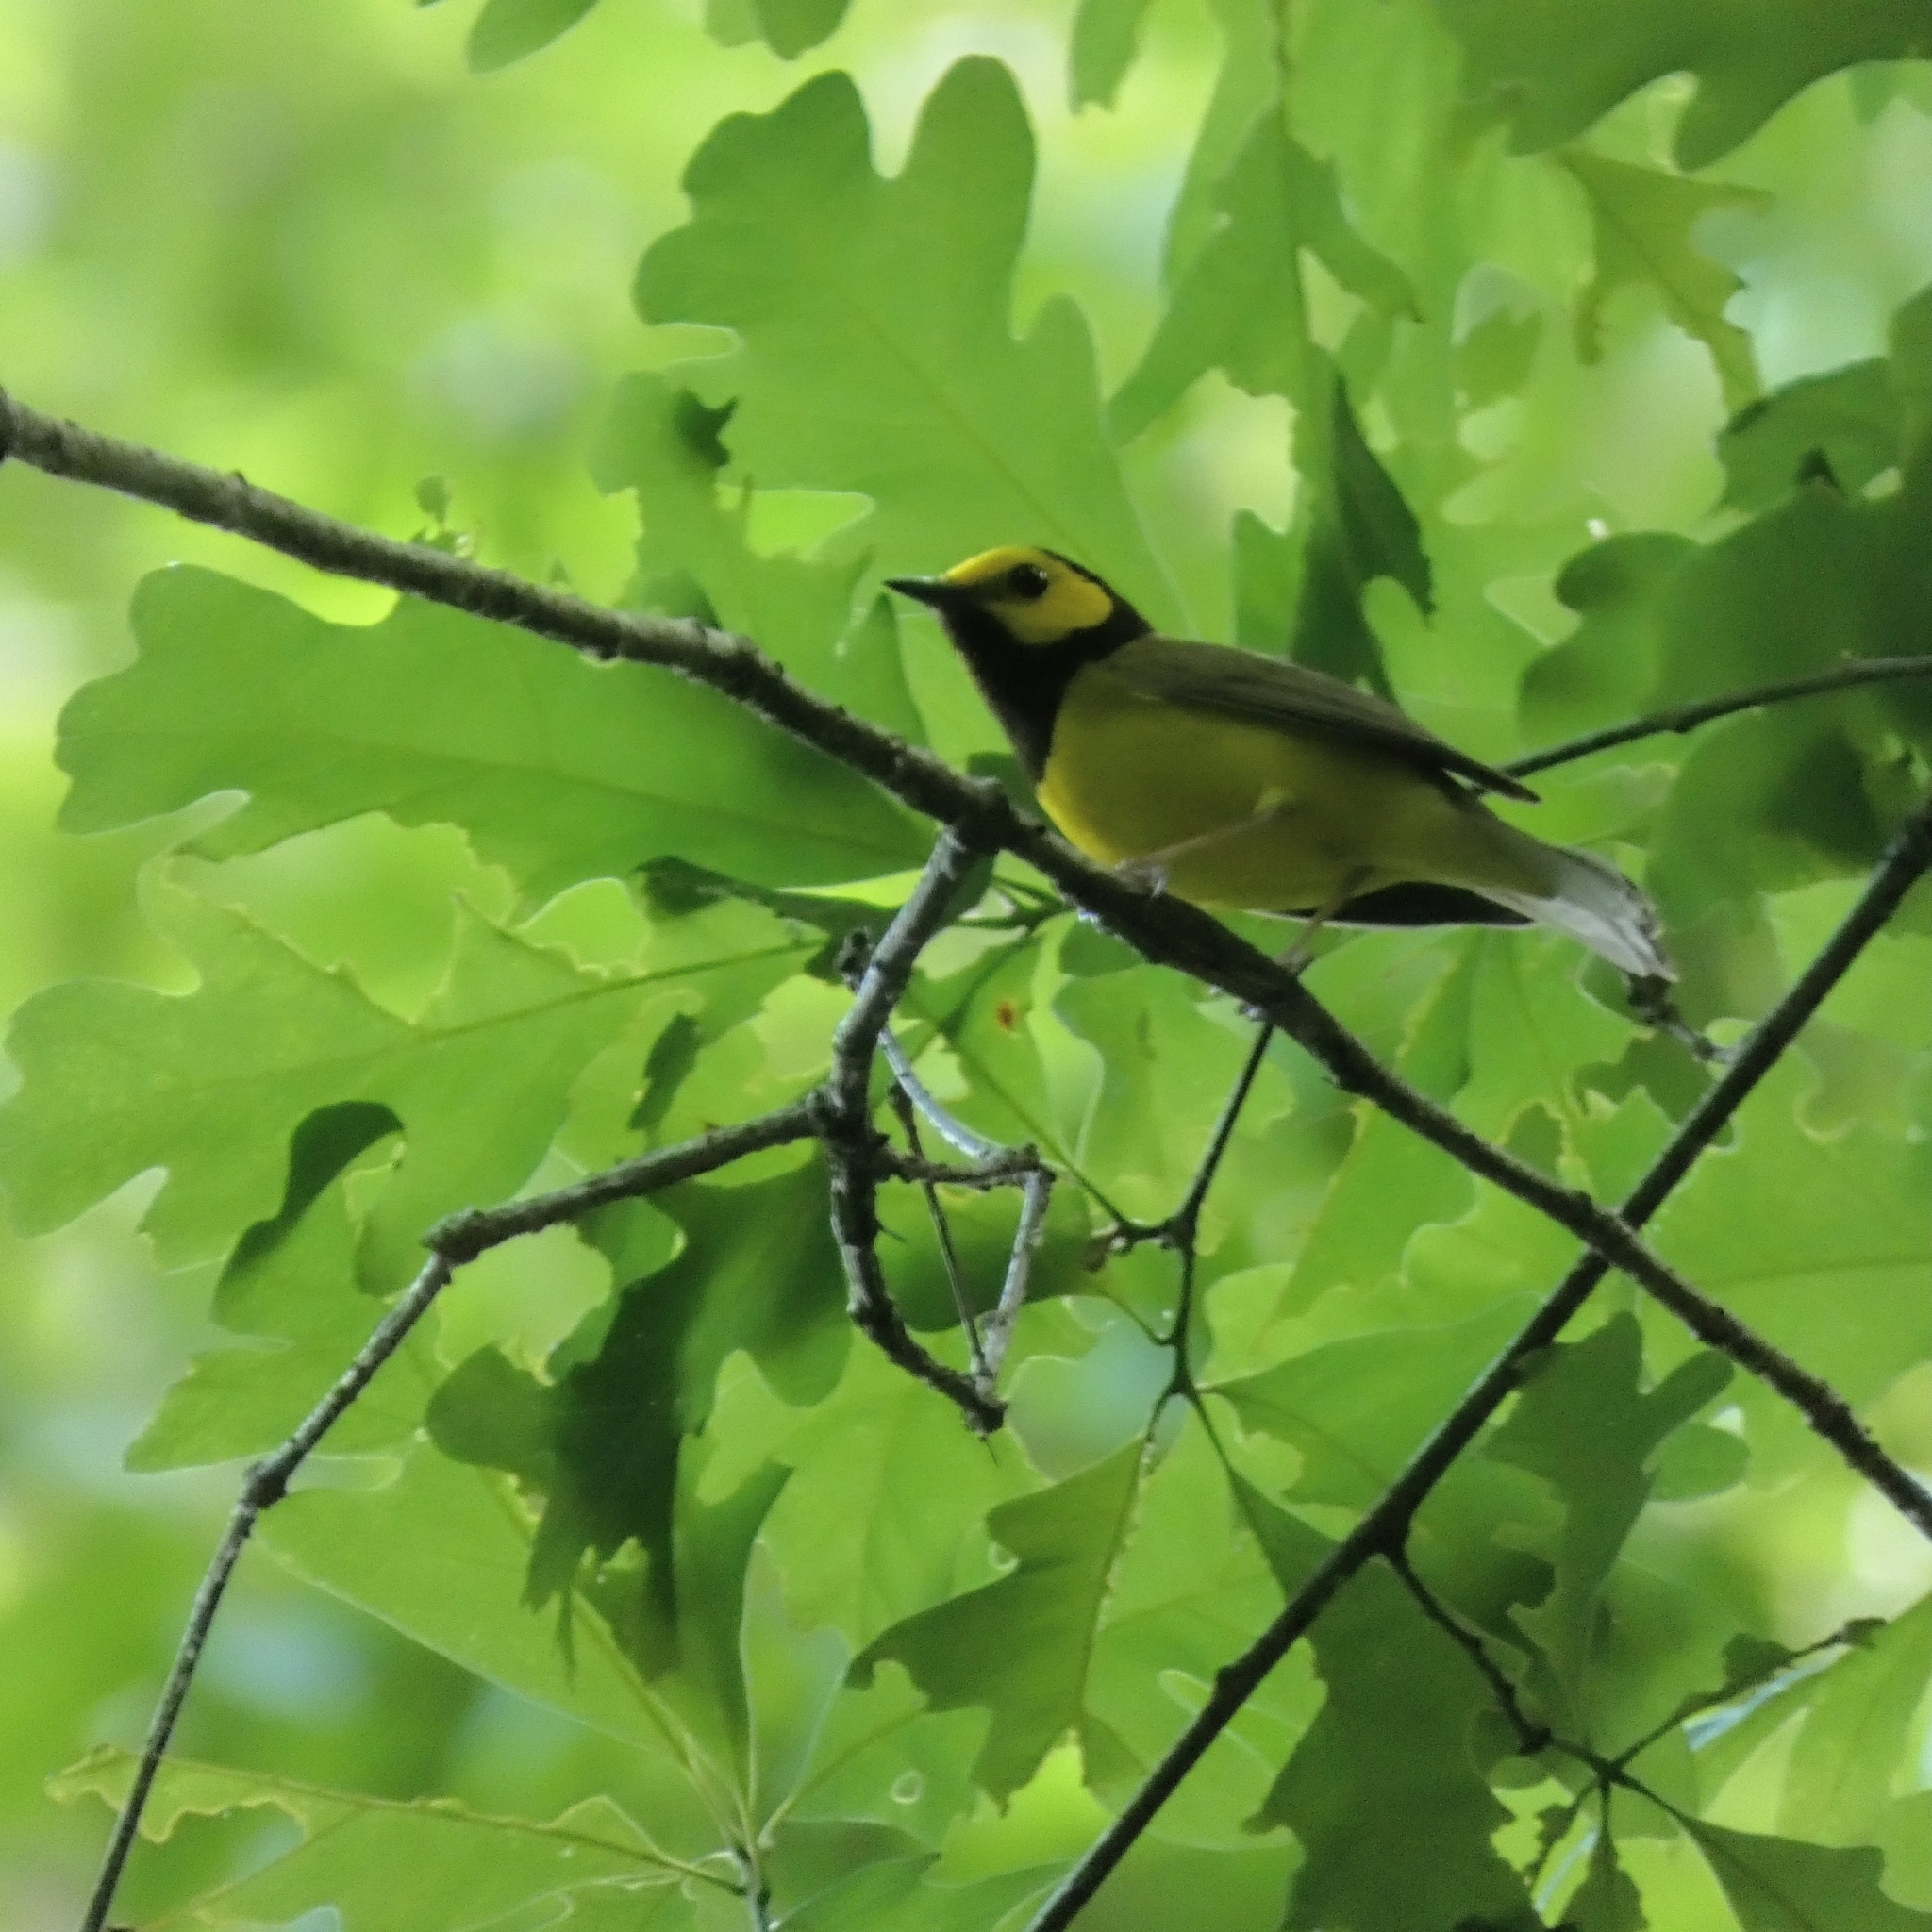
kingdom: Animalia
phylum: Chordata
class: Aves
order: Passeriformes
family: Parulidae
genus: Setophaga
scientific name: Setophaga citrina
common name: Hooded warbler
